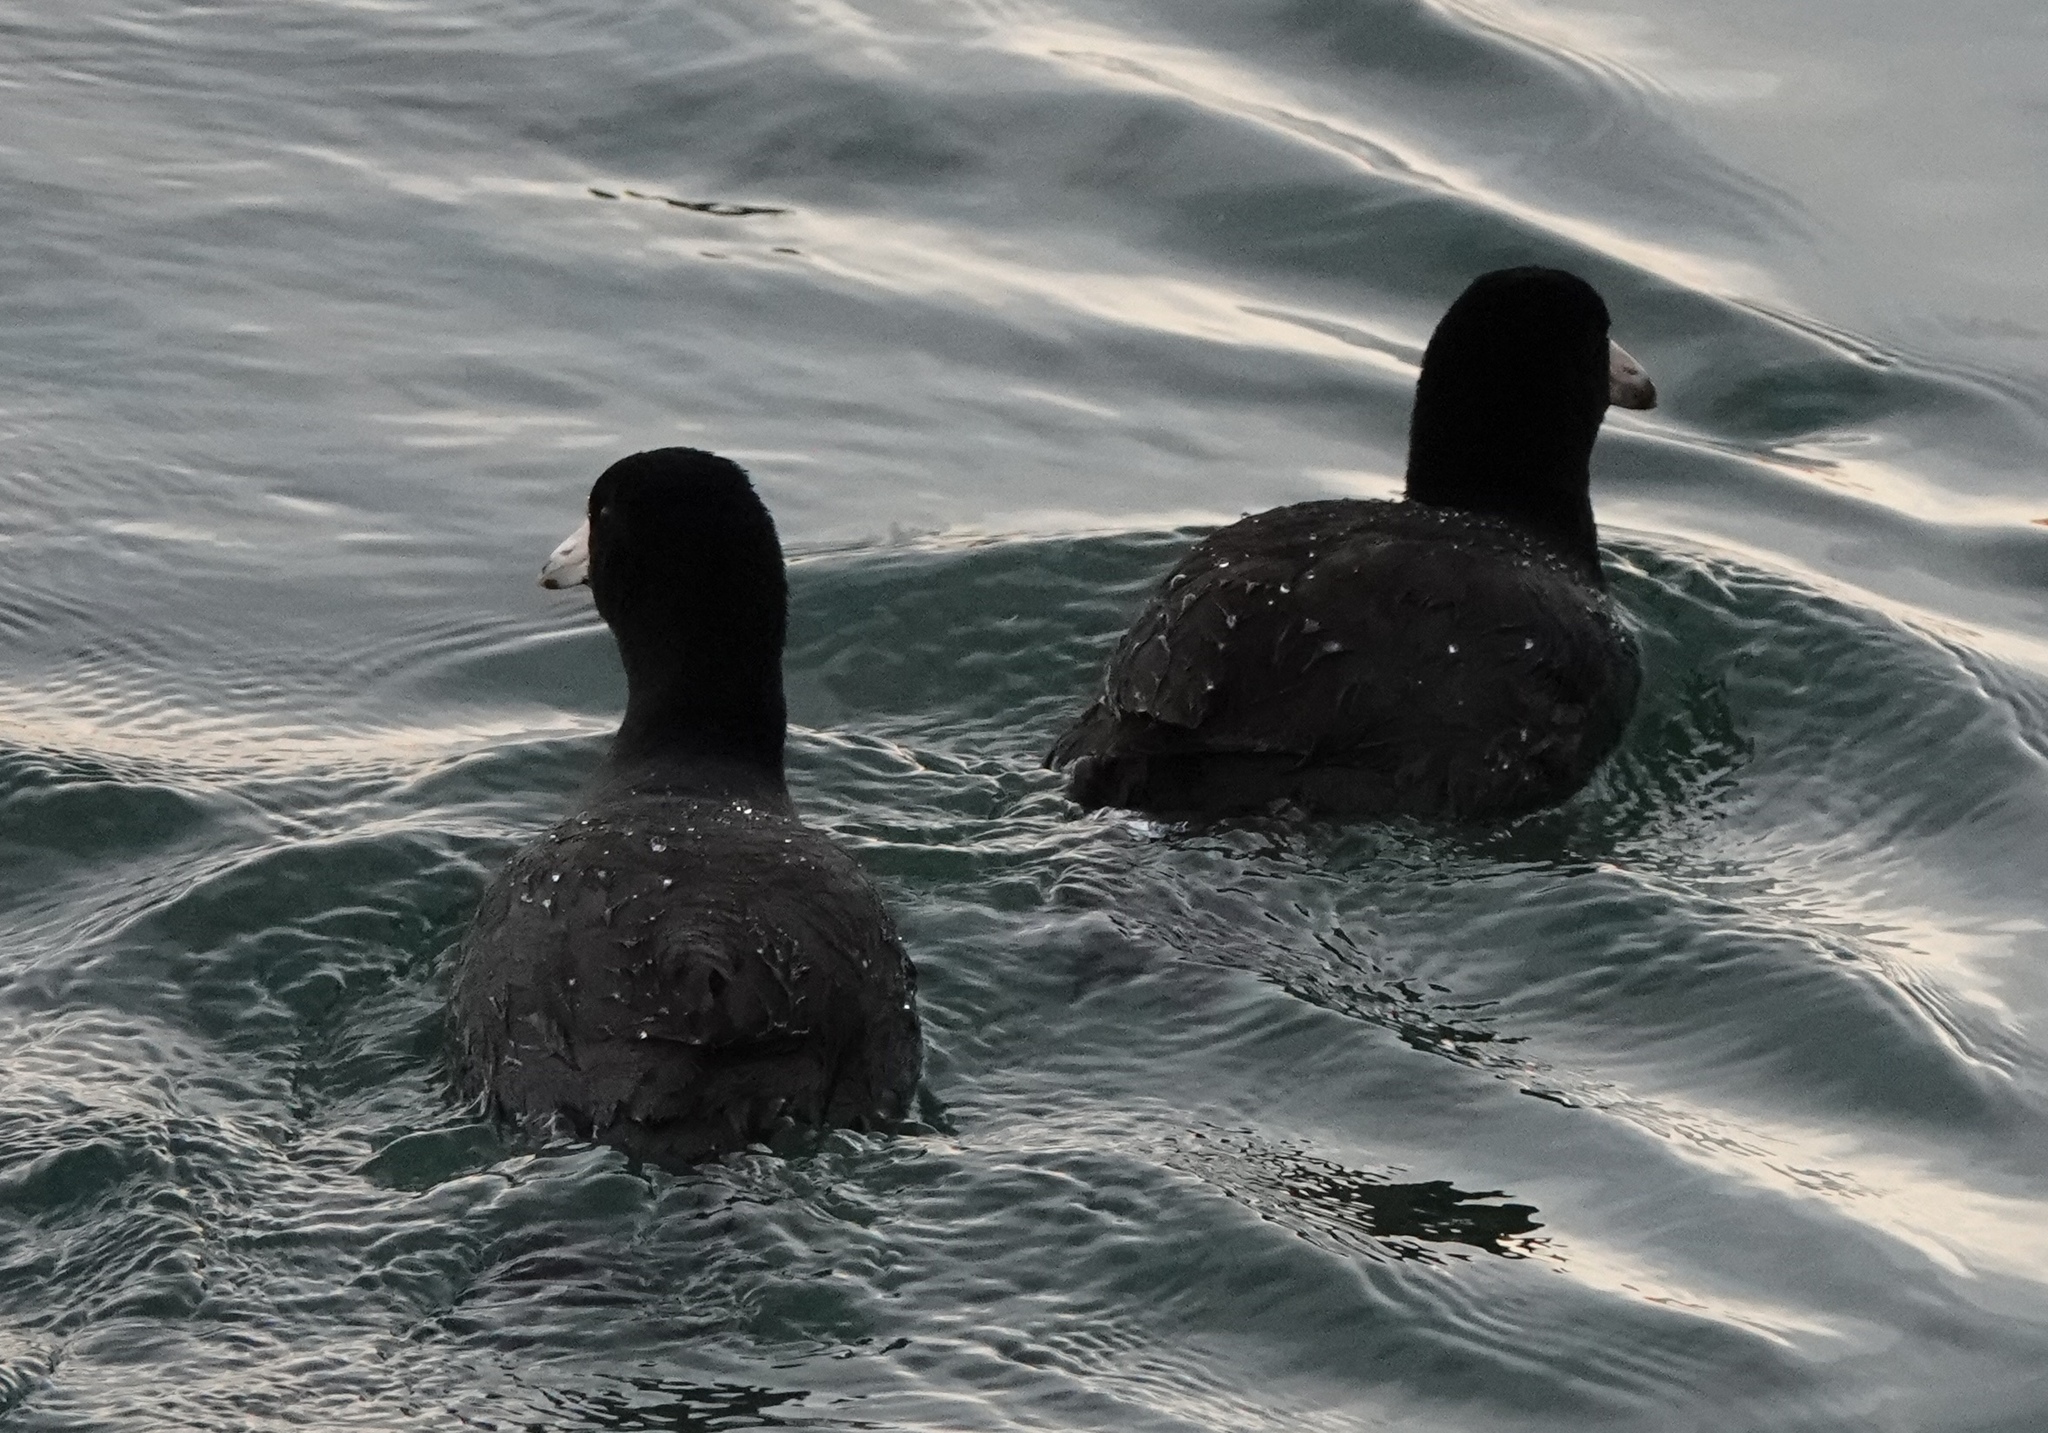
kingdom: Animalia
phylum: Chordata
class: Aves
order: Gruiformes
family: Rallidae
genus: Fulica
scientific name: Fulica americana
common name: American coot
